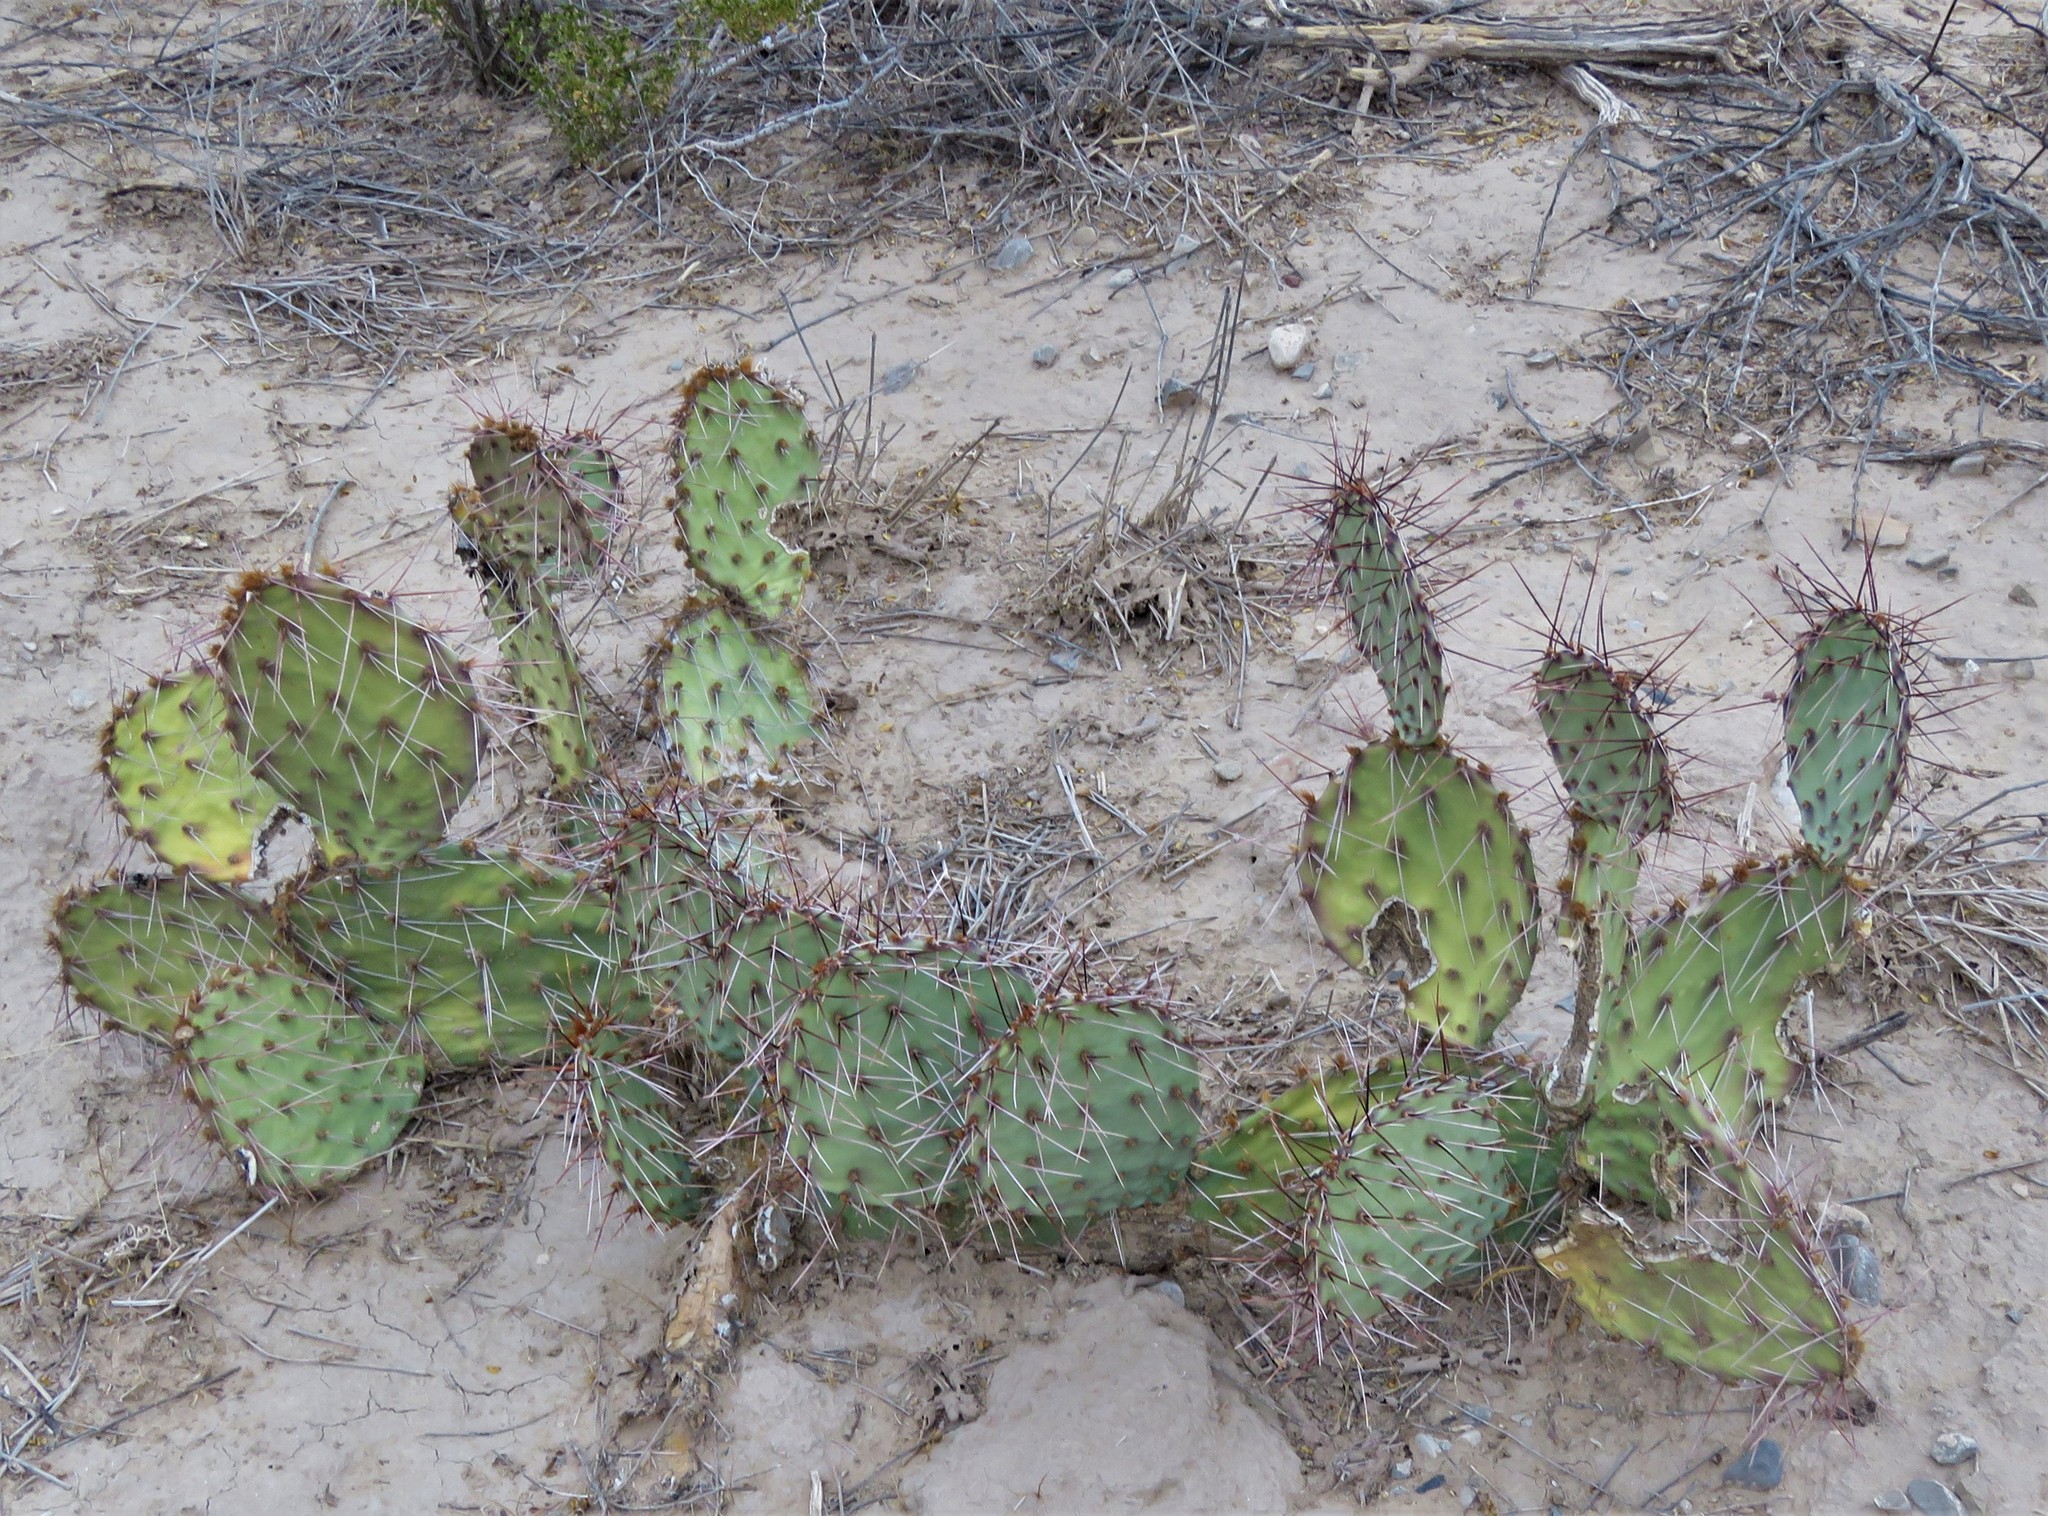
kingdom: Plantae
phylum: Tracheophyta
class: Magnoliopsida
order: Caryophyllales
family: Cactaceae
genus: Opuntia
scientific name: Opuntia phaeacantha
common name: New mexico prickly-pear
